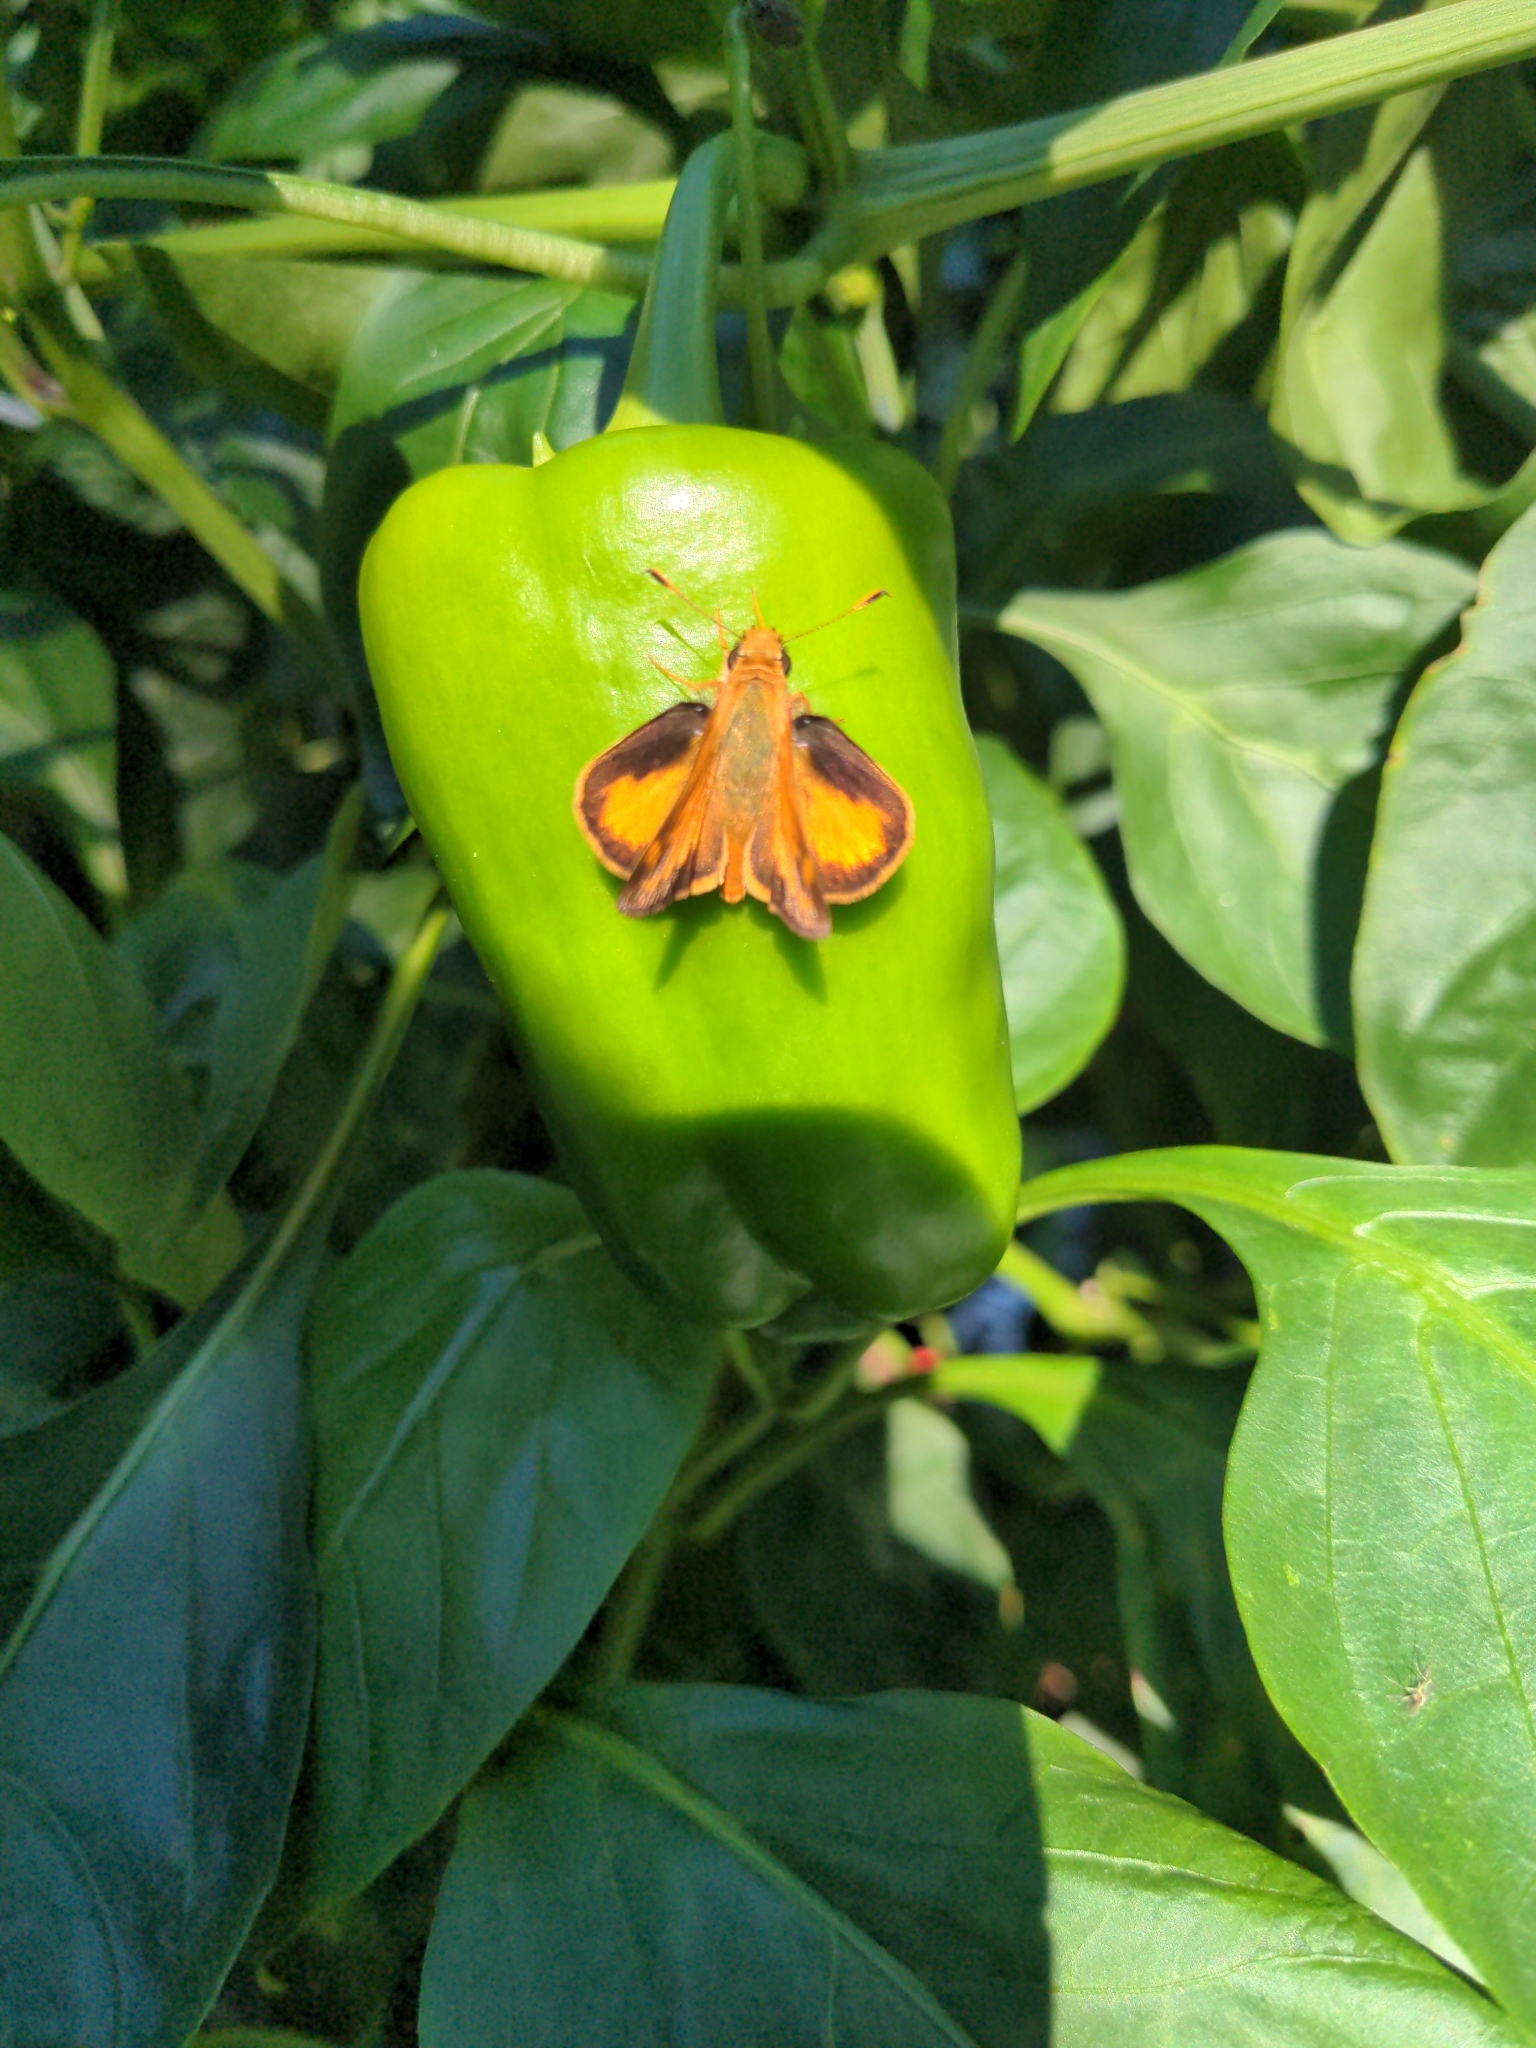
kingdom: Animalia
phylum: Arthropoda
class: Insecta
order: Lepidoptera
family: Hesperiidae
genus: Lon
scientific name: Lon zabulon
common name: Zabulon skipper
